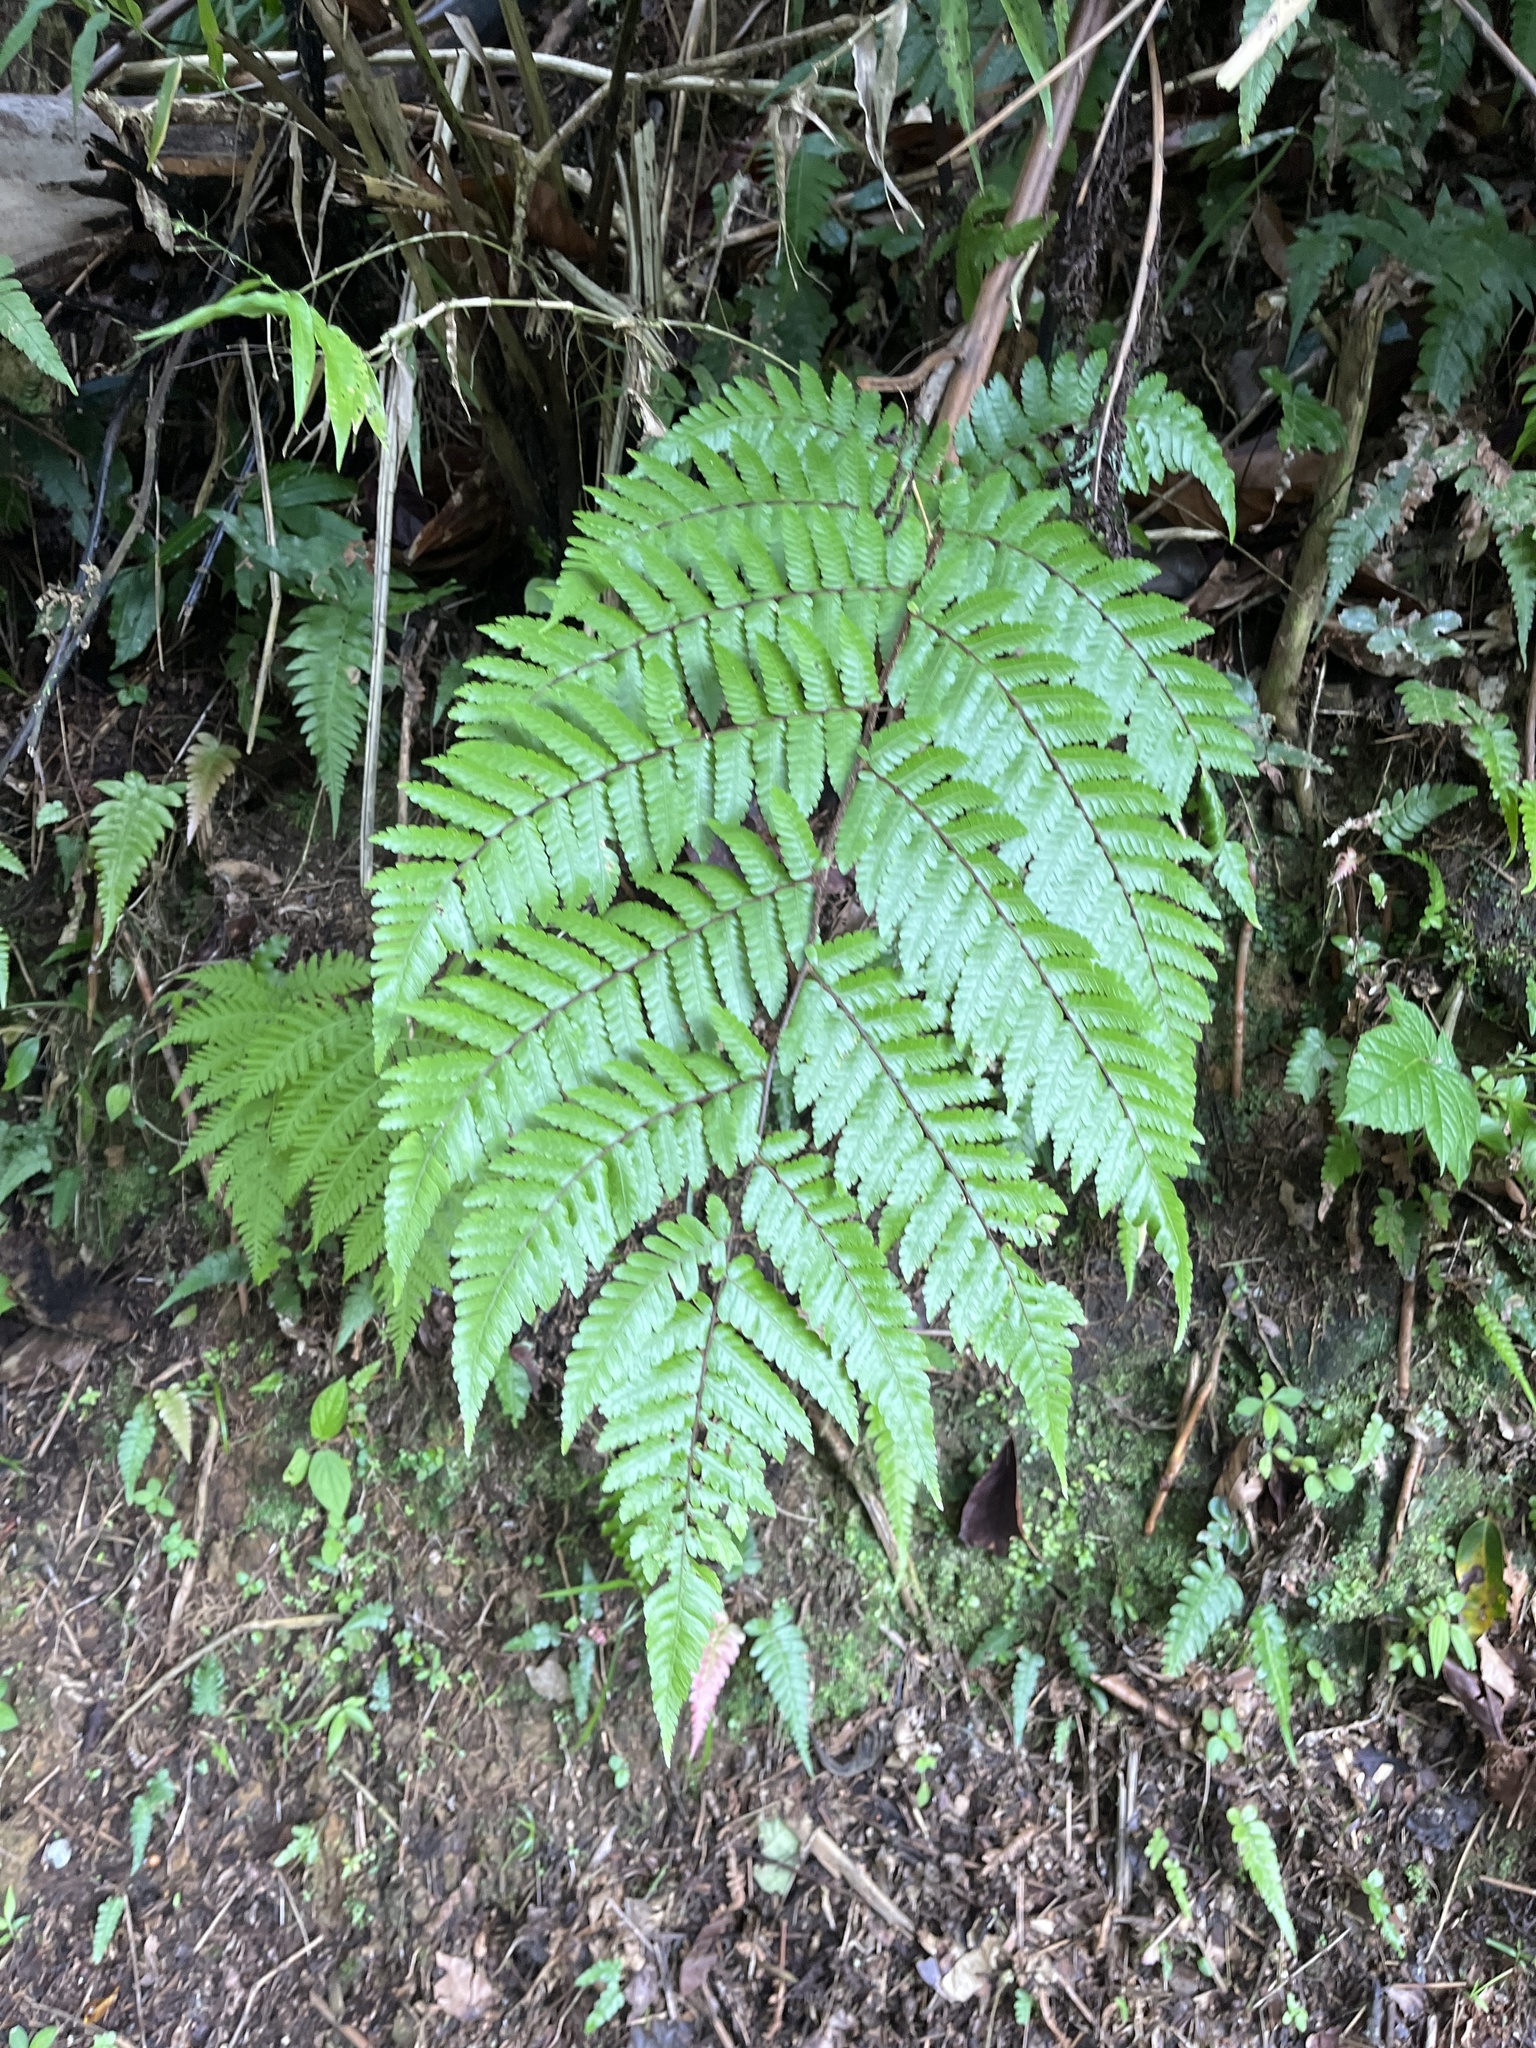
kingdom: Plantae
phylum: Tracheophyta
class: Polypodiopsida
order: Cyatheales
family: Cyatheaceae
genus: Cyathea
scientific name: Cyathea borinquena
